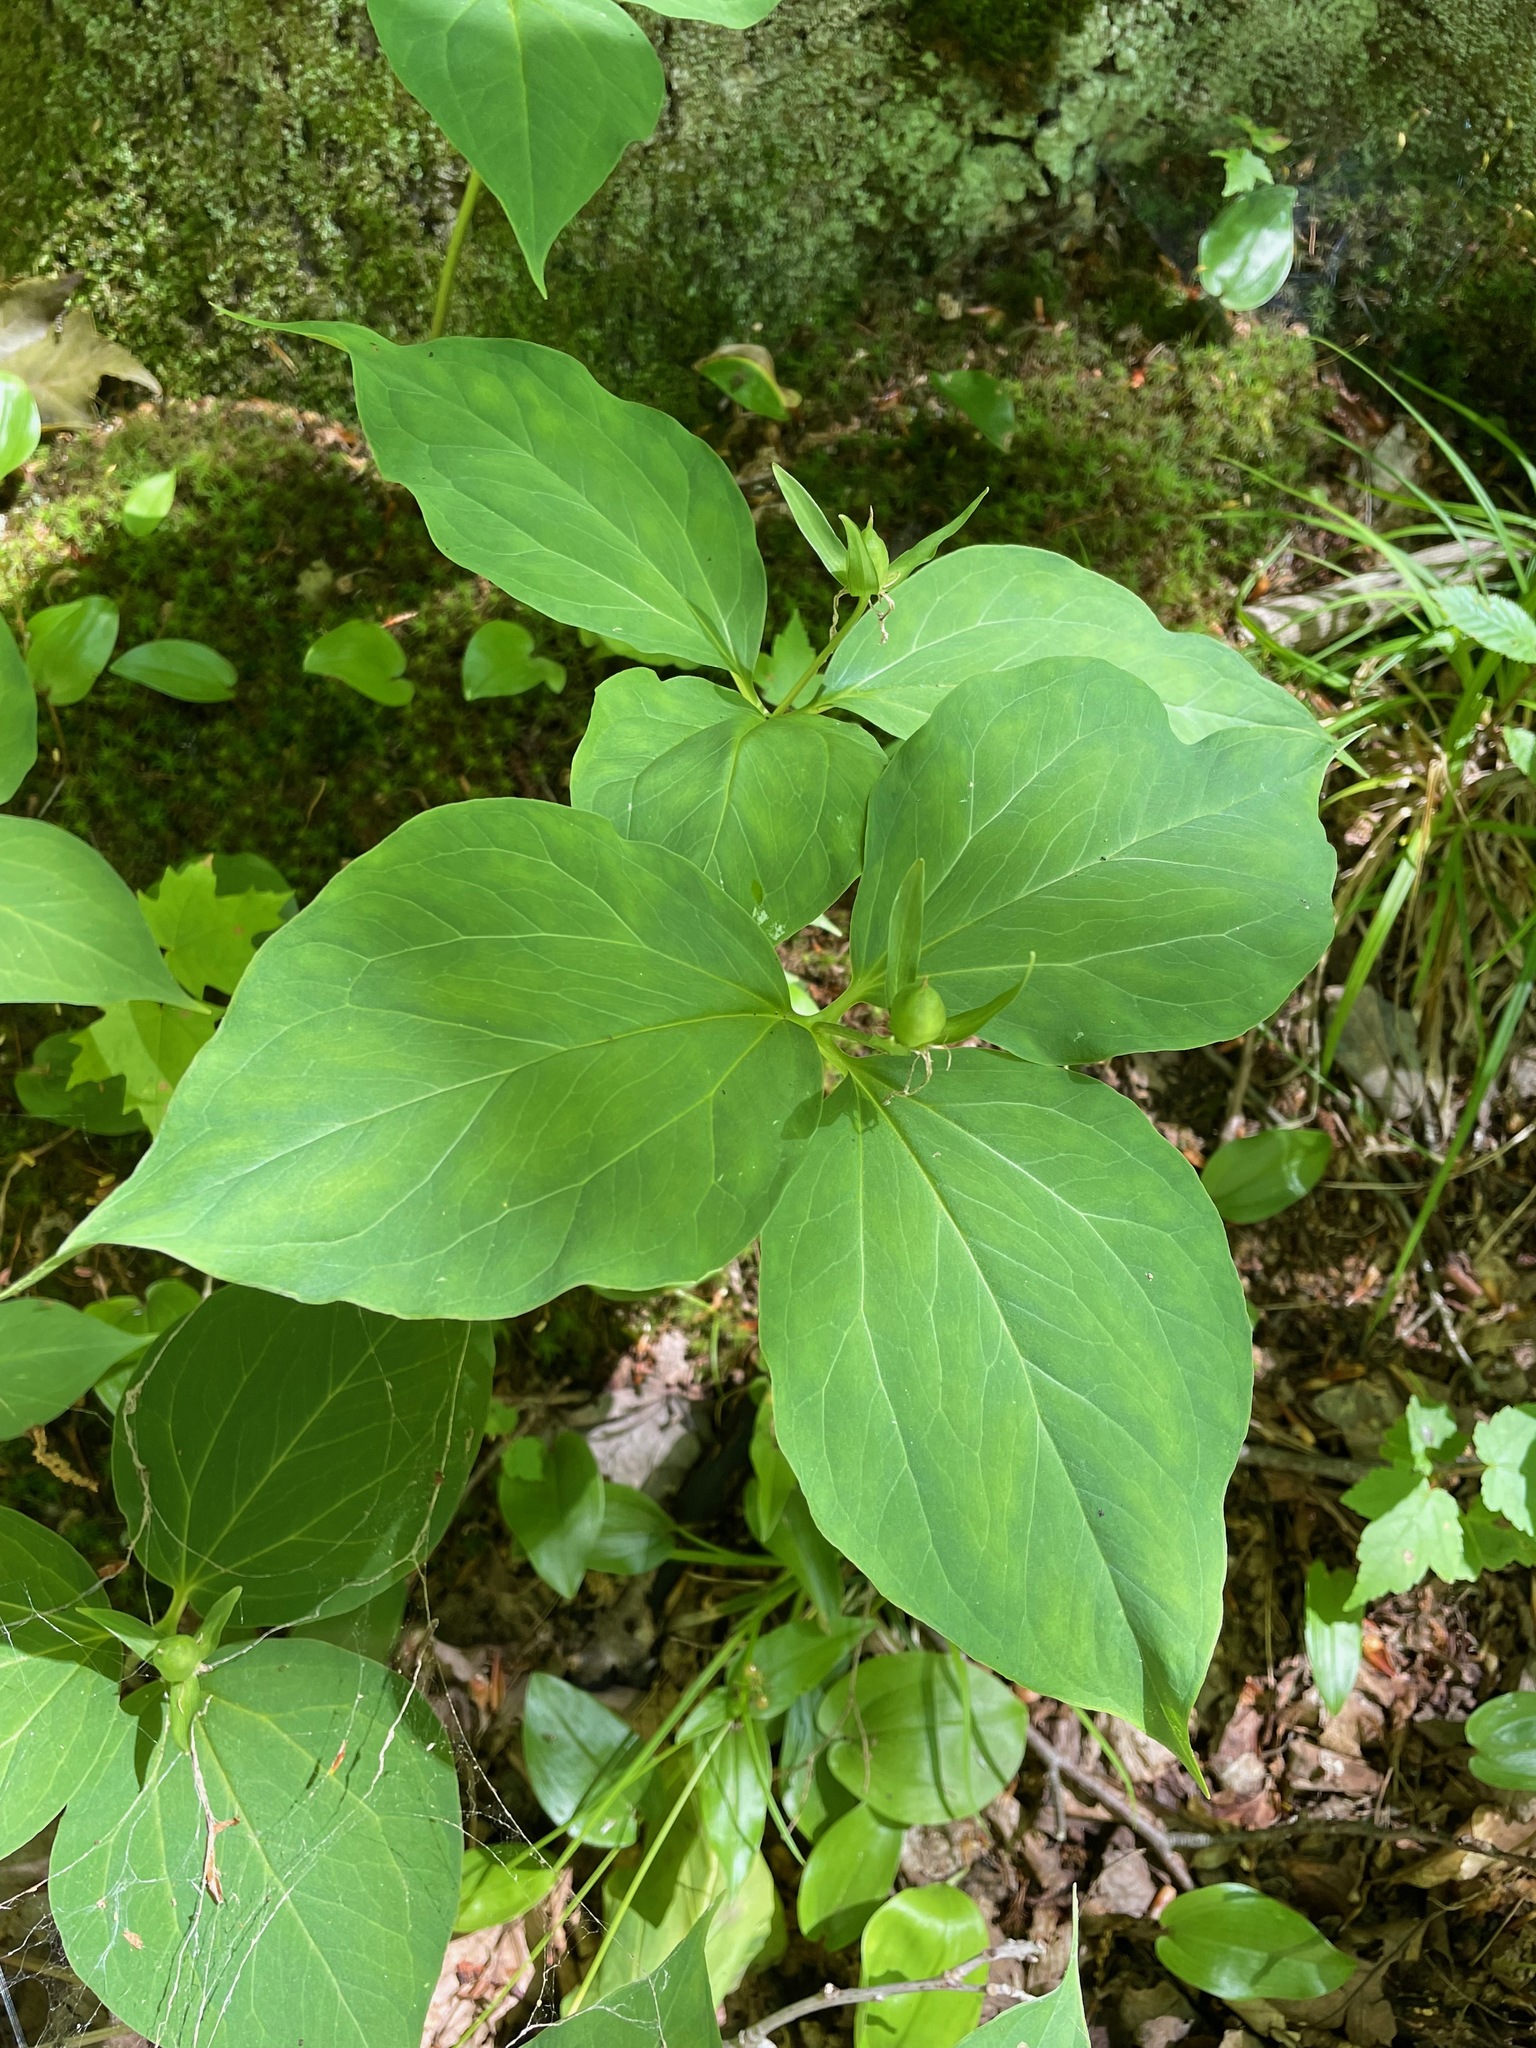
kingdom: Plantae
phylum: Tracheophyta
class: Liliopsida
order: Liliales
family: Melanthiaceae
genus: Trillium
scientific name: Trillium undulatum
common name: Paint trillium
